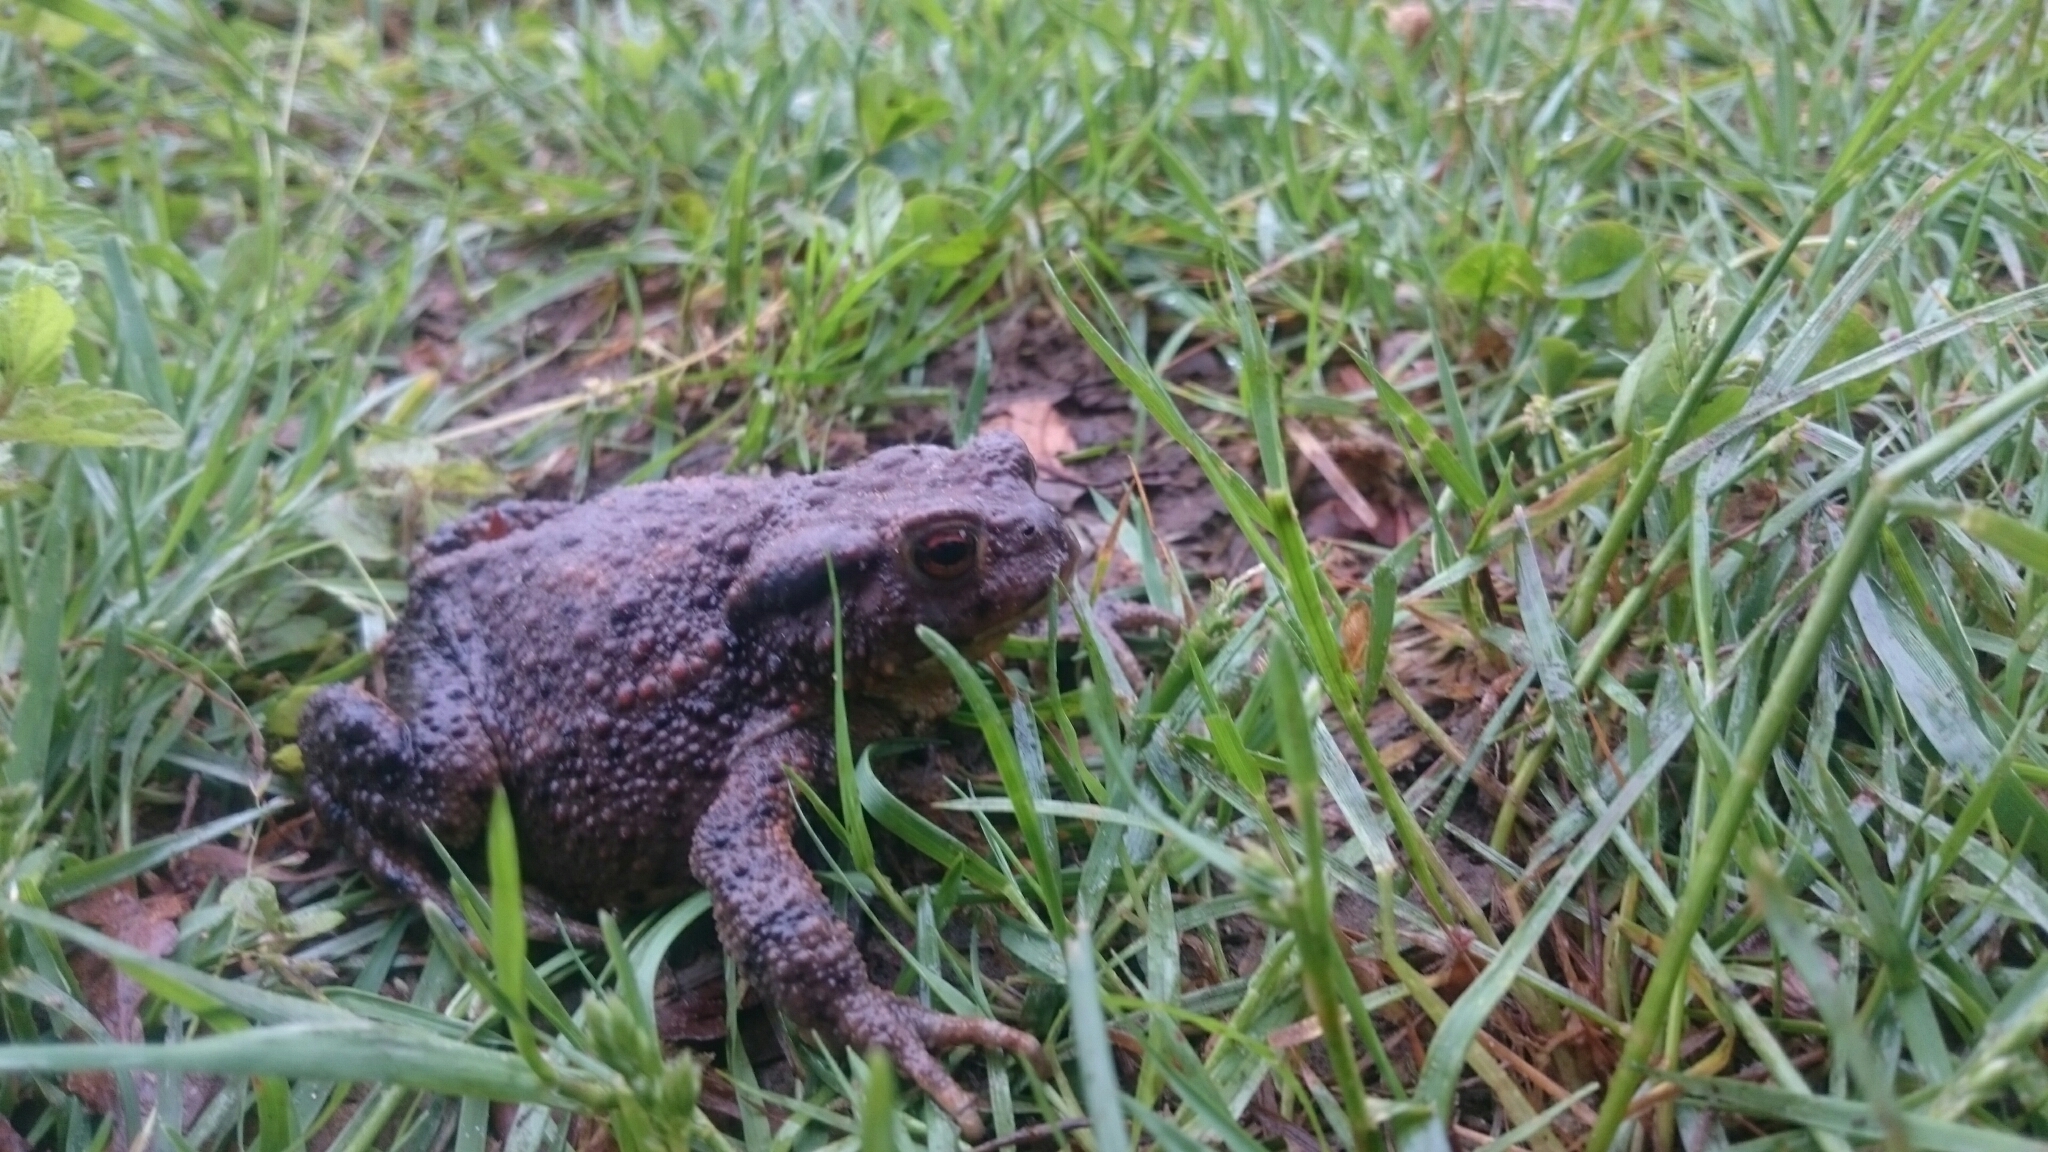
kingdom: Animalia
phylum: Chordata
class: Amphibia
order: Anura
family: Bufonidae
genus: Bufo
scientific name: Bufo bufo
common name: Common toad
